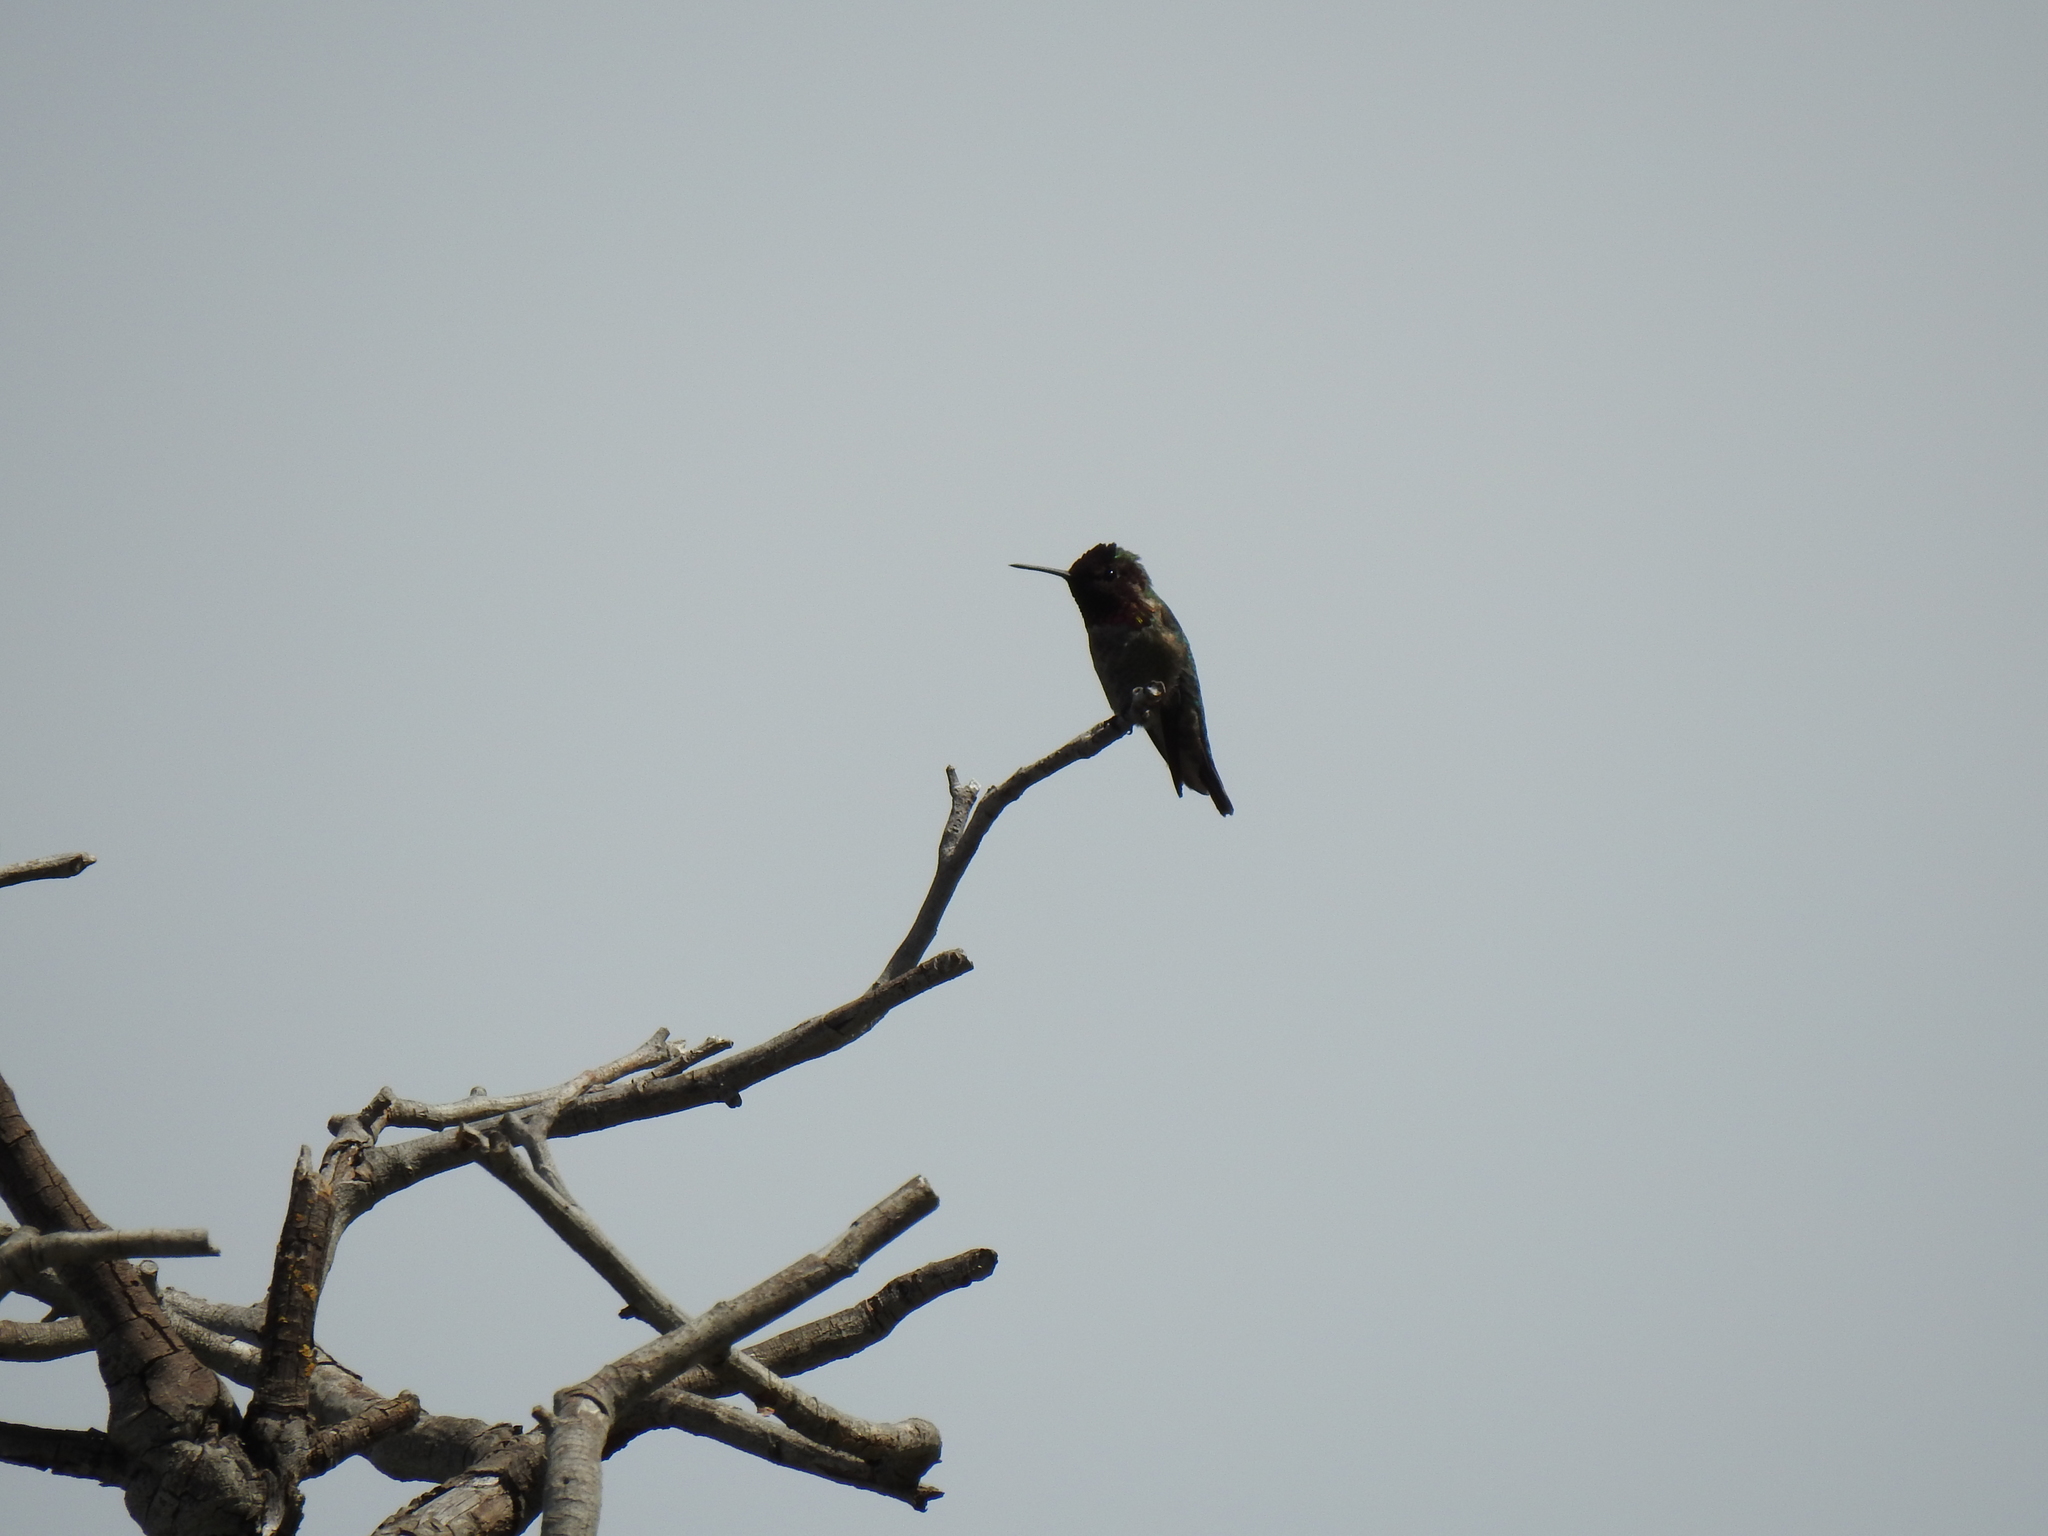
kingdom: Animalia
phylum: Chordata
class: Aves
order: Apodiformes
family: Trochilidae
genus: Calypte
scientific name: Calypte anna
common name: Anna's hummingbird
